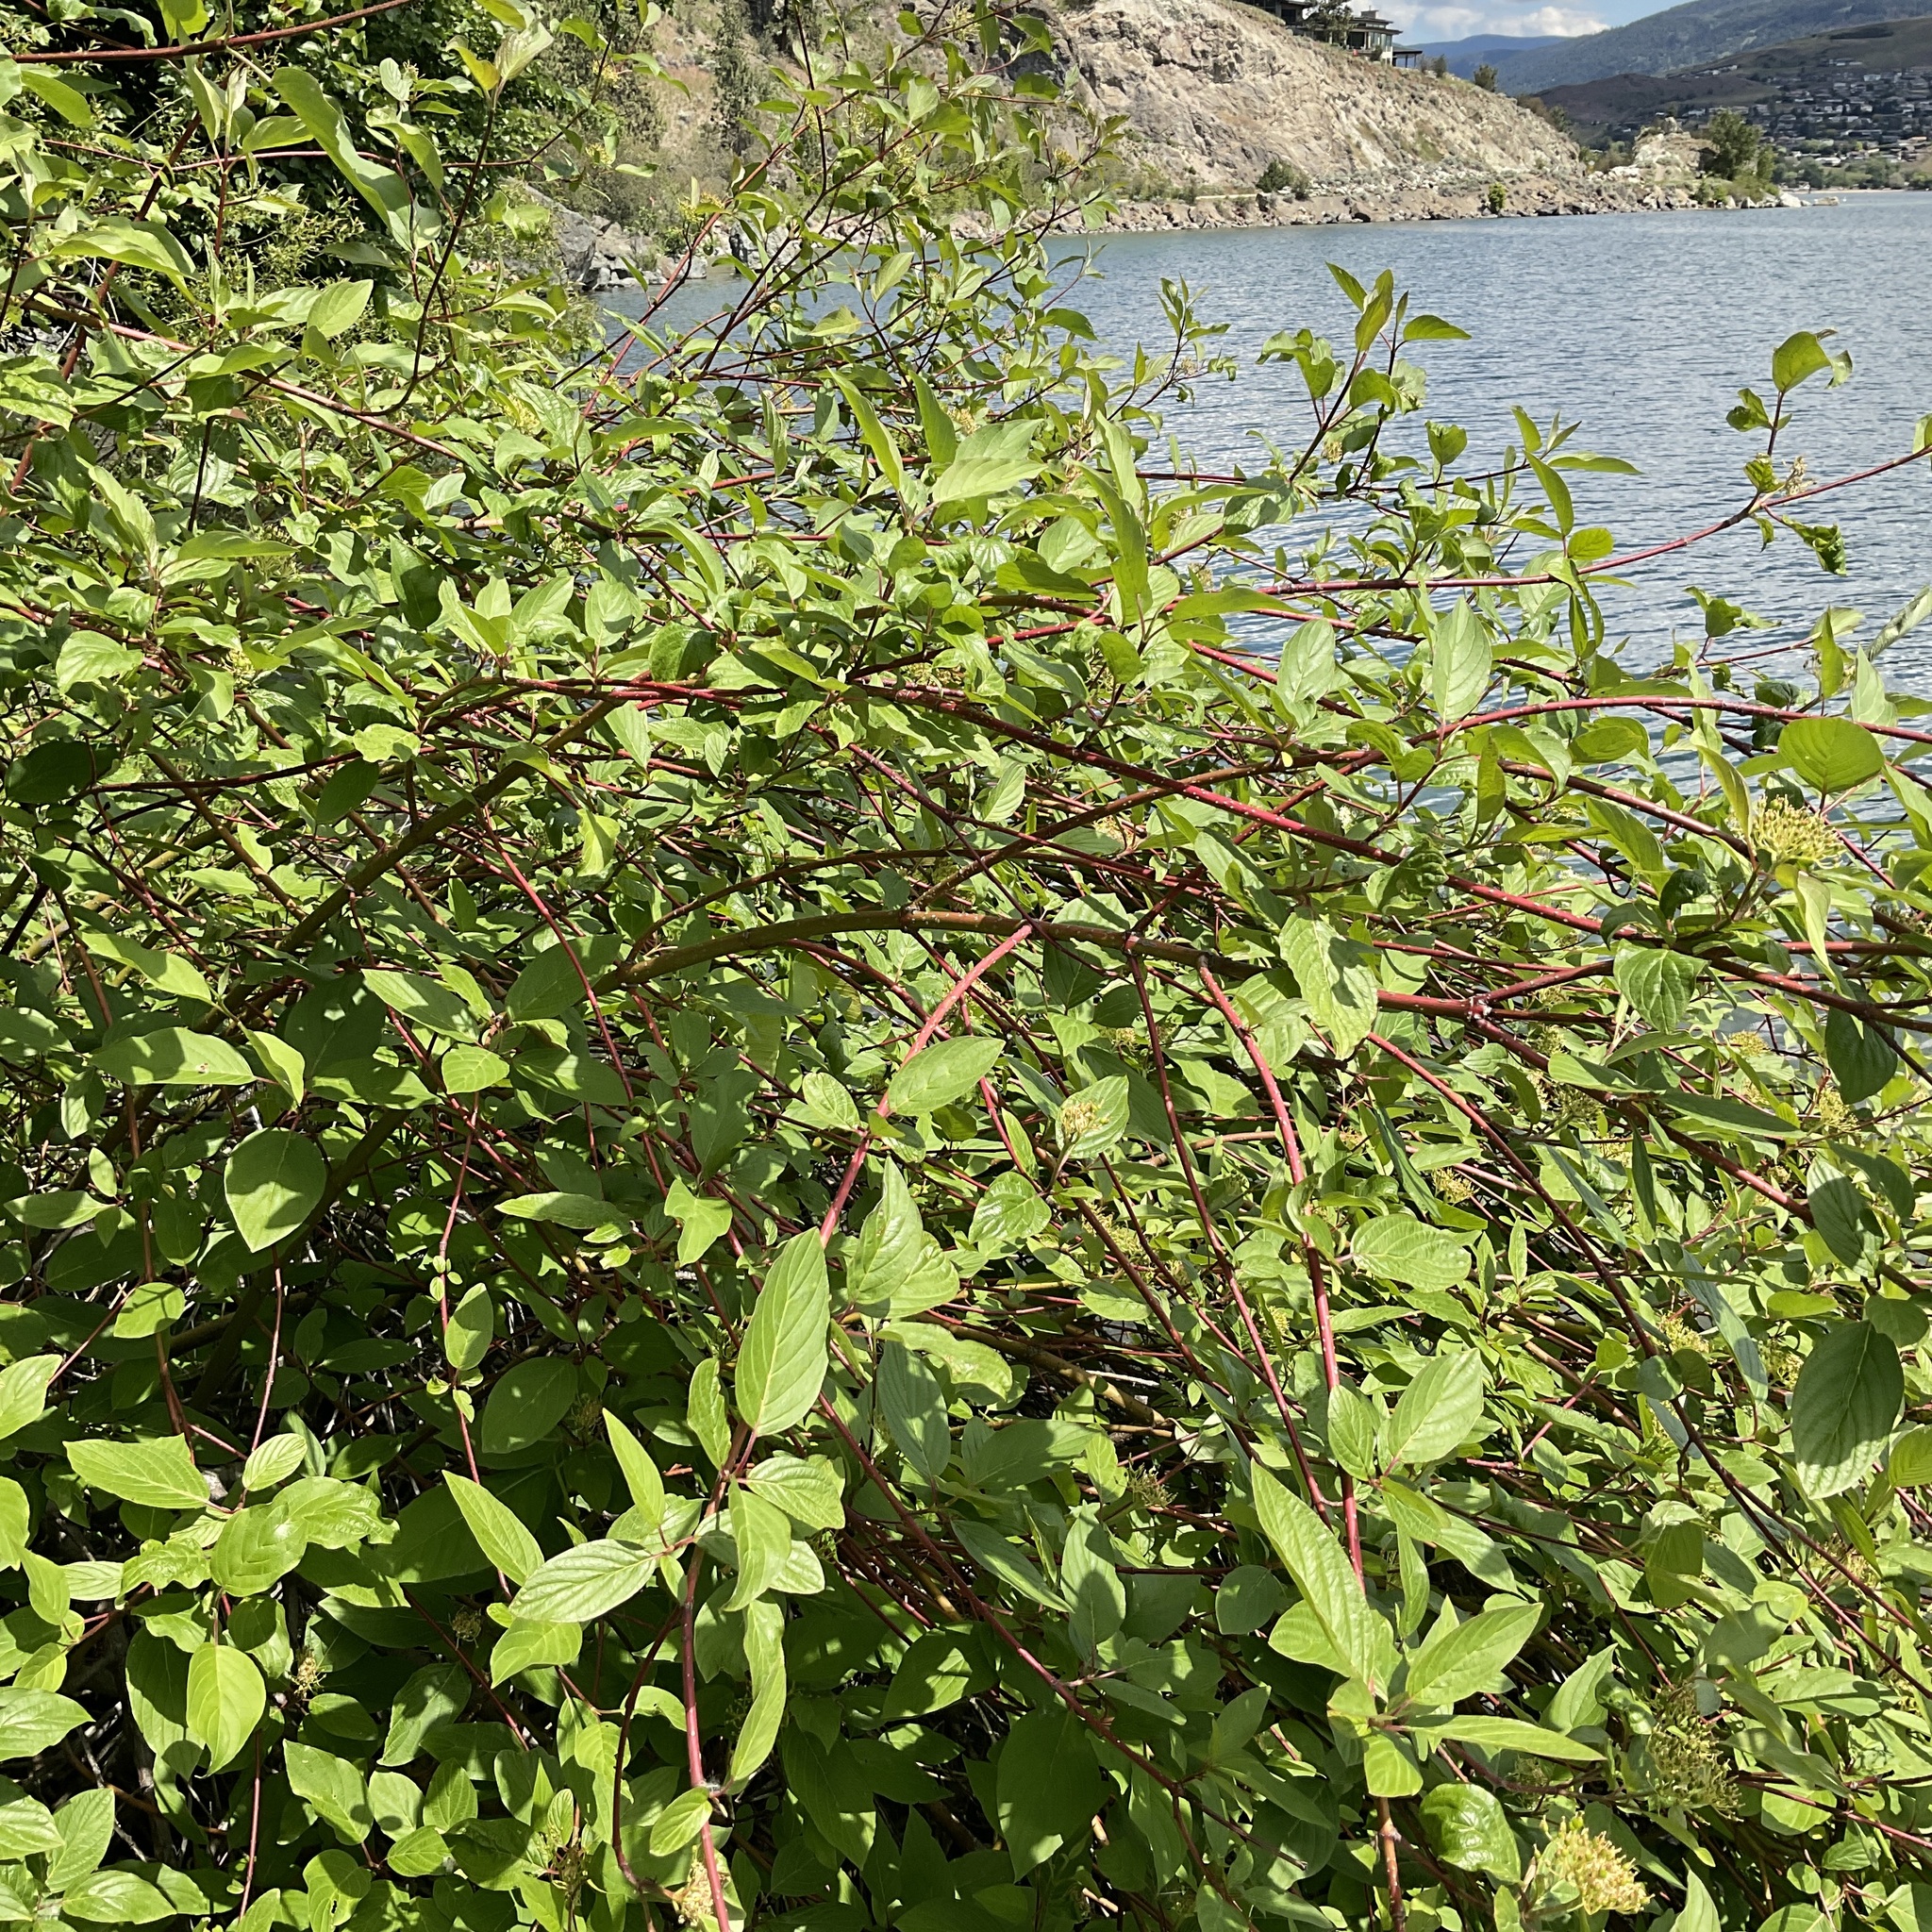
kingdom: Plantae
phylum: Tracheophyta
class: Magnoliopsida
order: Cornales
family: Cornaceae
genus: Cornus
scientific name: Cornus sericea
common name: Red-osier dogwood
